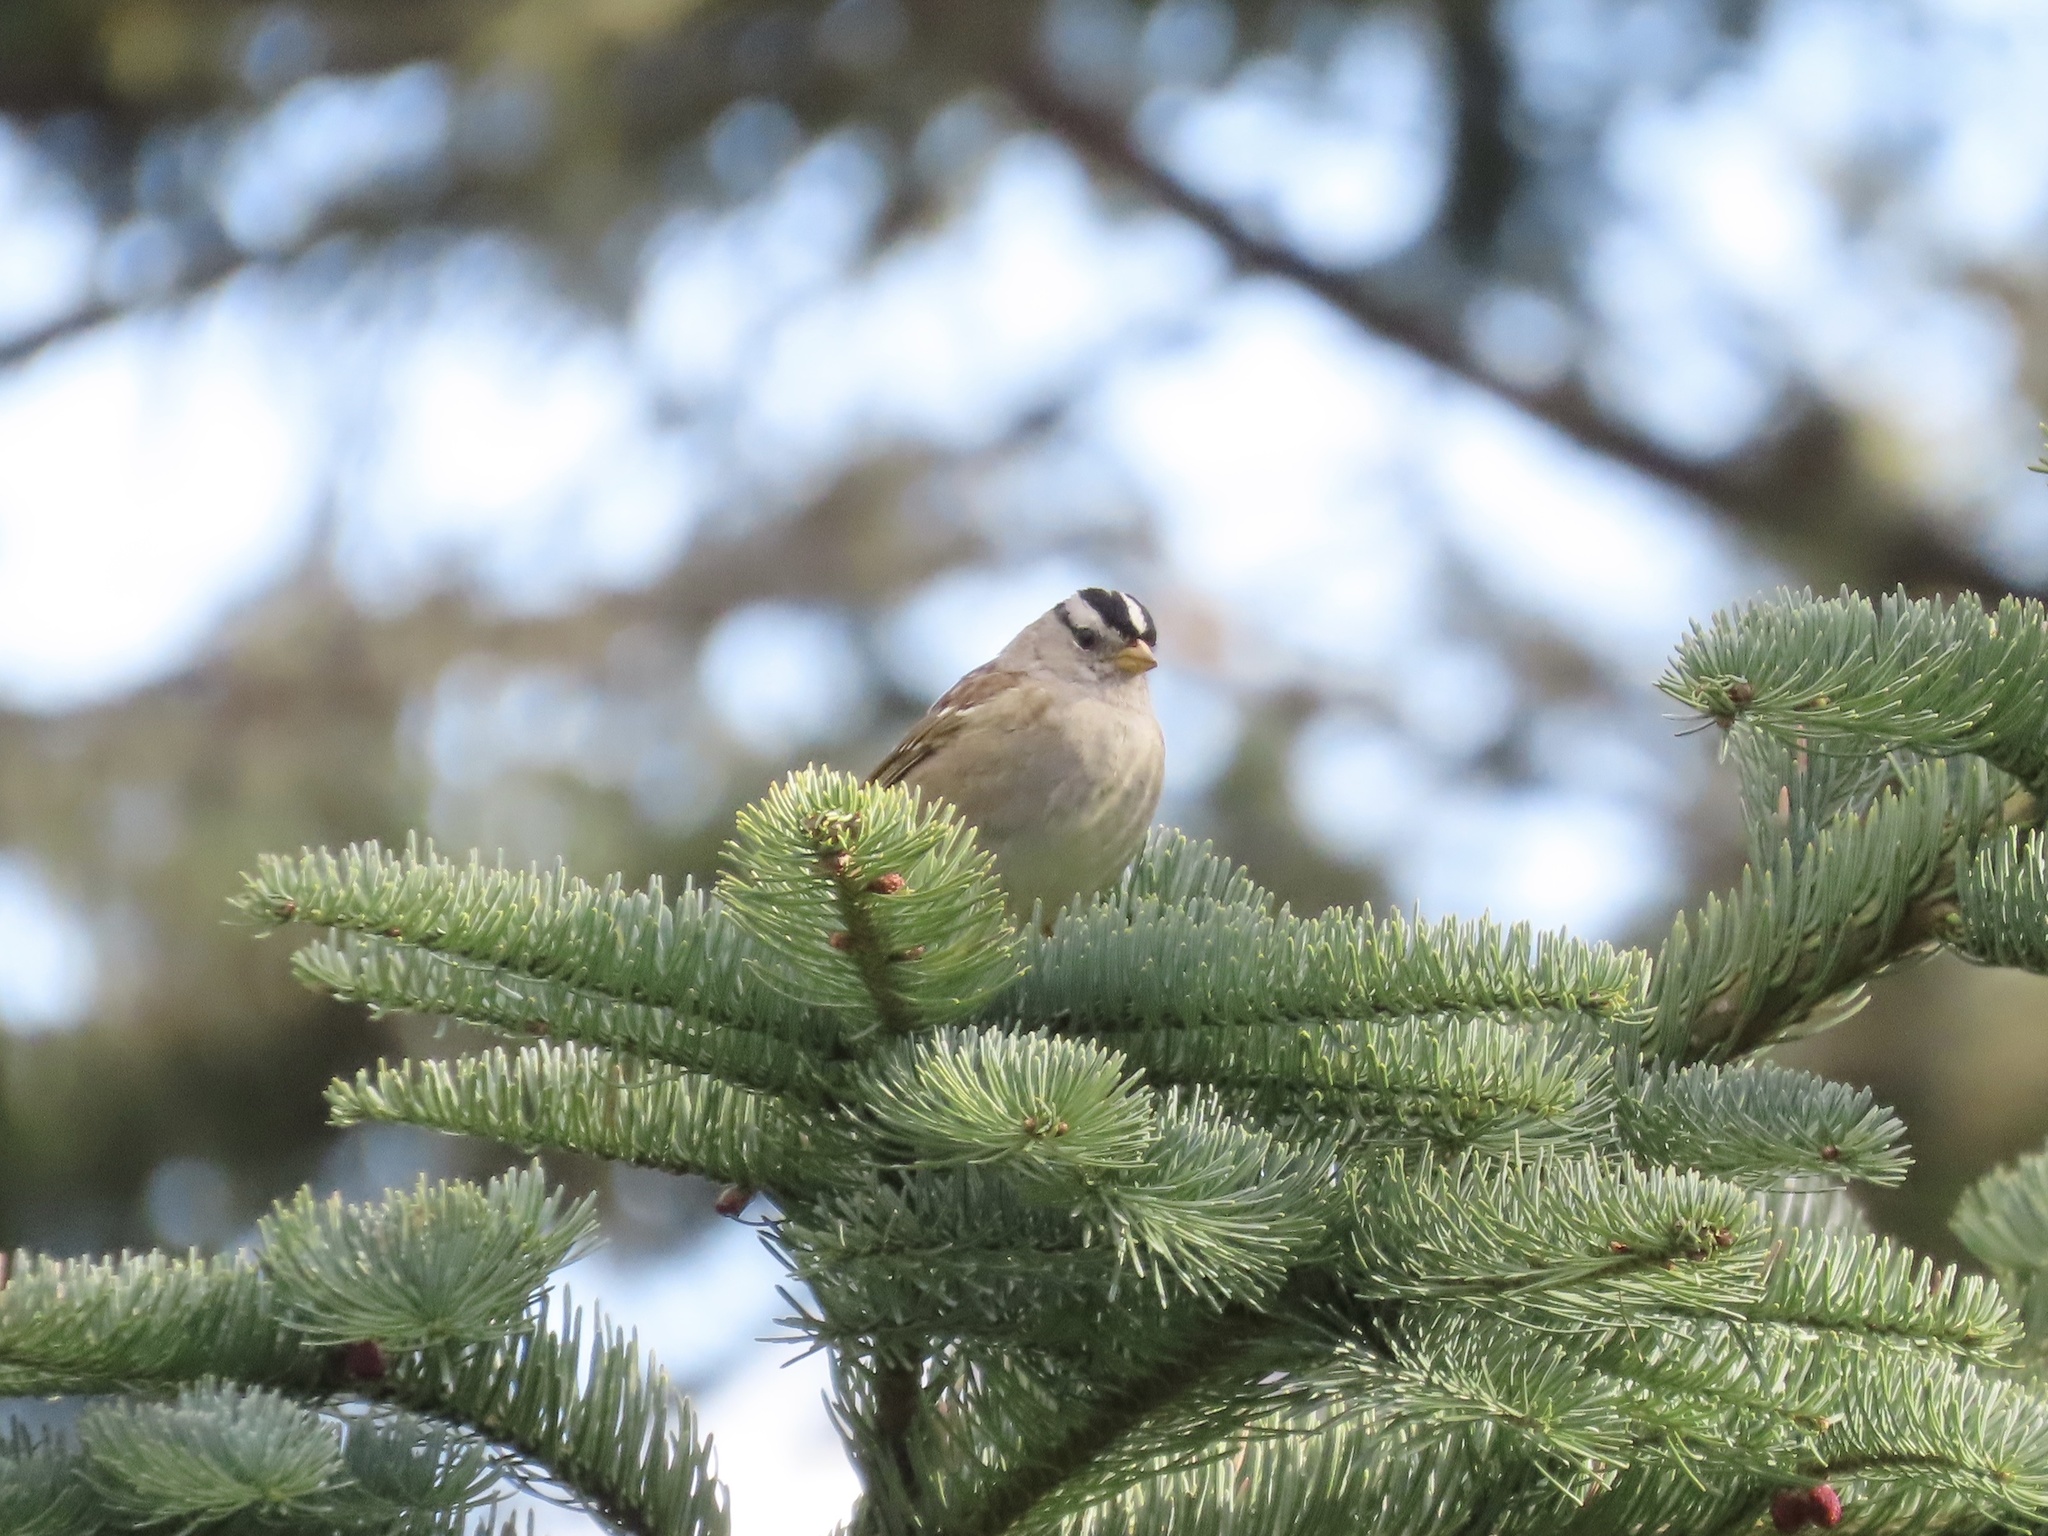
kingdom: Animalia
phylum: Chordata
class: Aves
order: Passeriformes
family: Passerellidae
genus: Zonotrichia
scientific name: Zonotrichia leucophrys
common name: White-crowned sparrow
